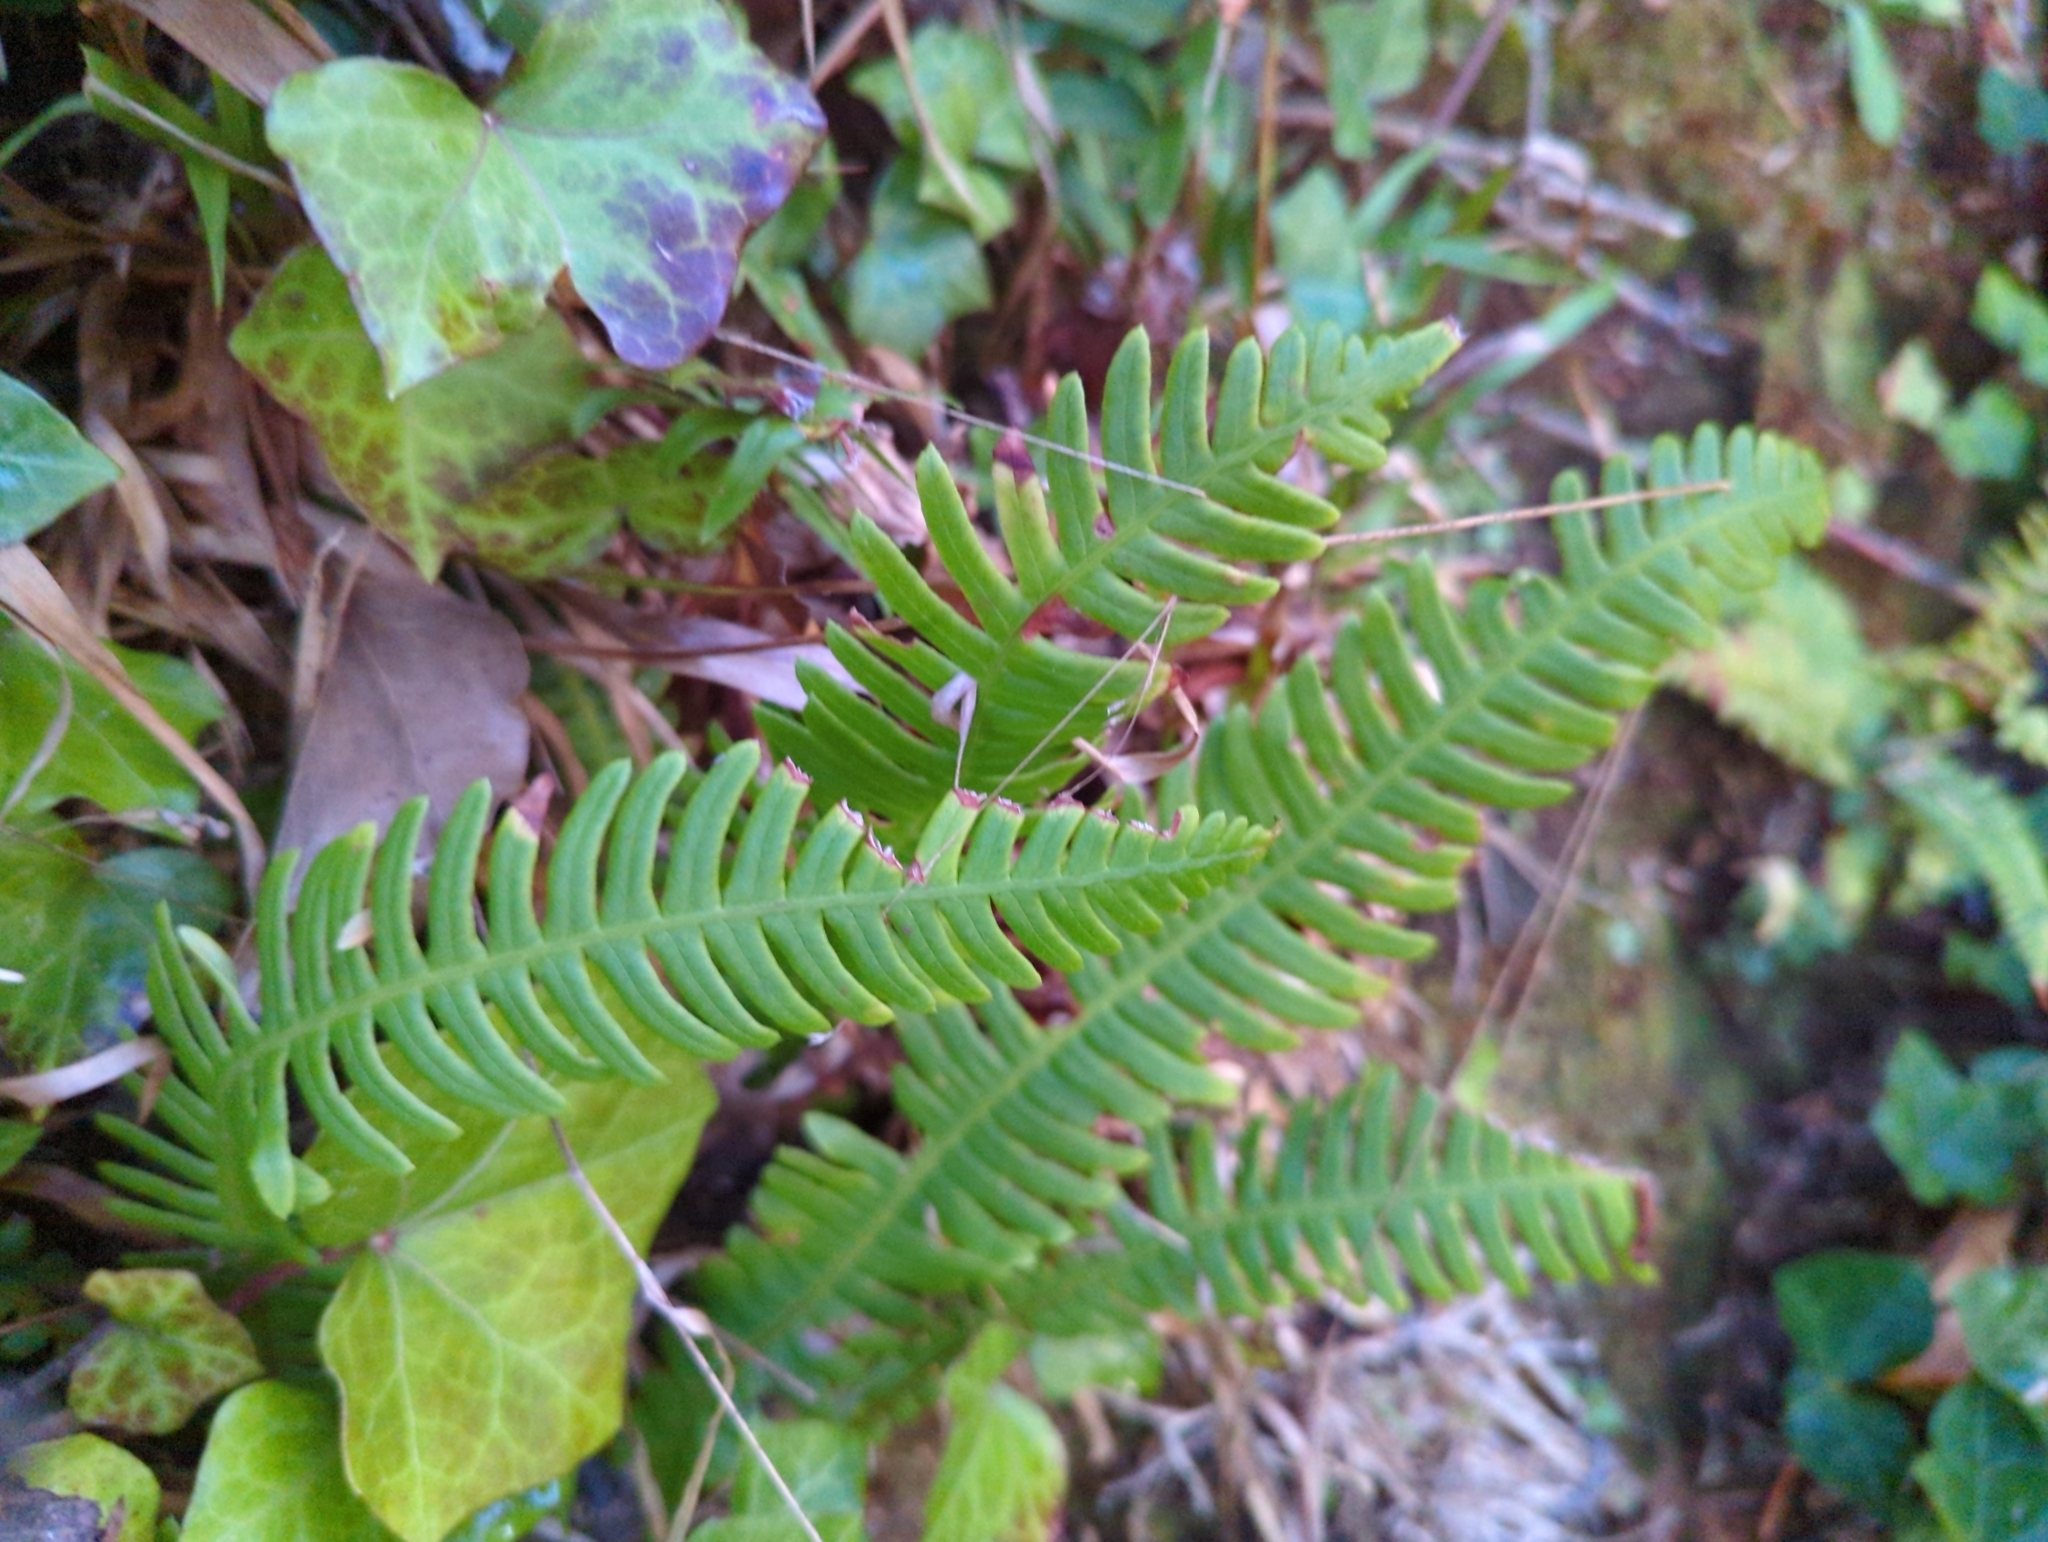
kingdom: Plantae
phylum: Tracheophyta
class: Polypodiopsida
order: Polypodiales
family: Blechnaceae
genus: Struthiopteris
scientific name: Struthiopteris spicant
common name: Deer fern
